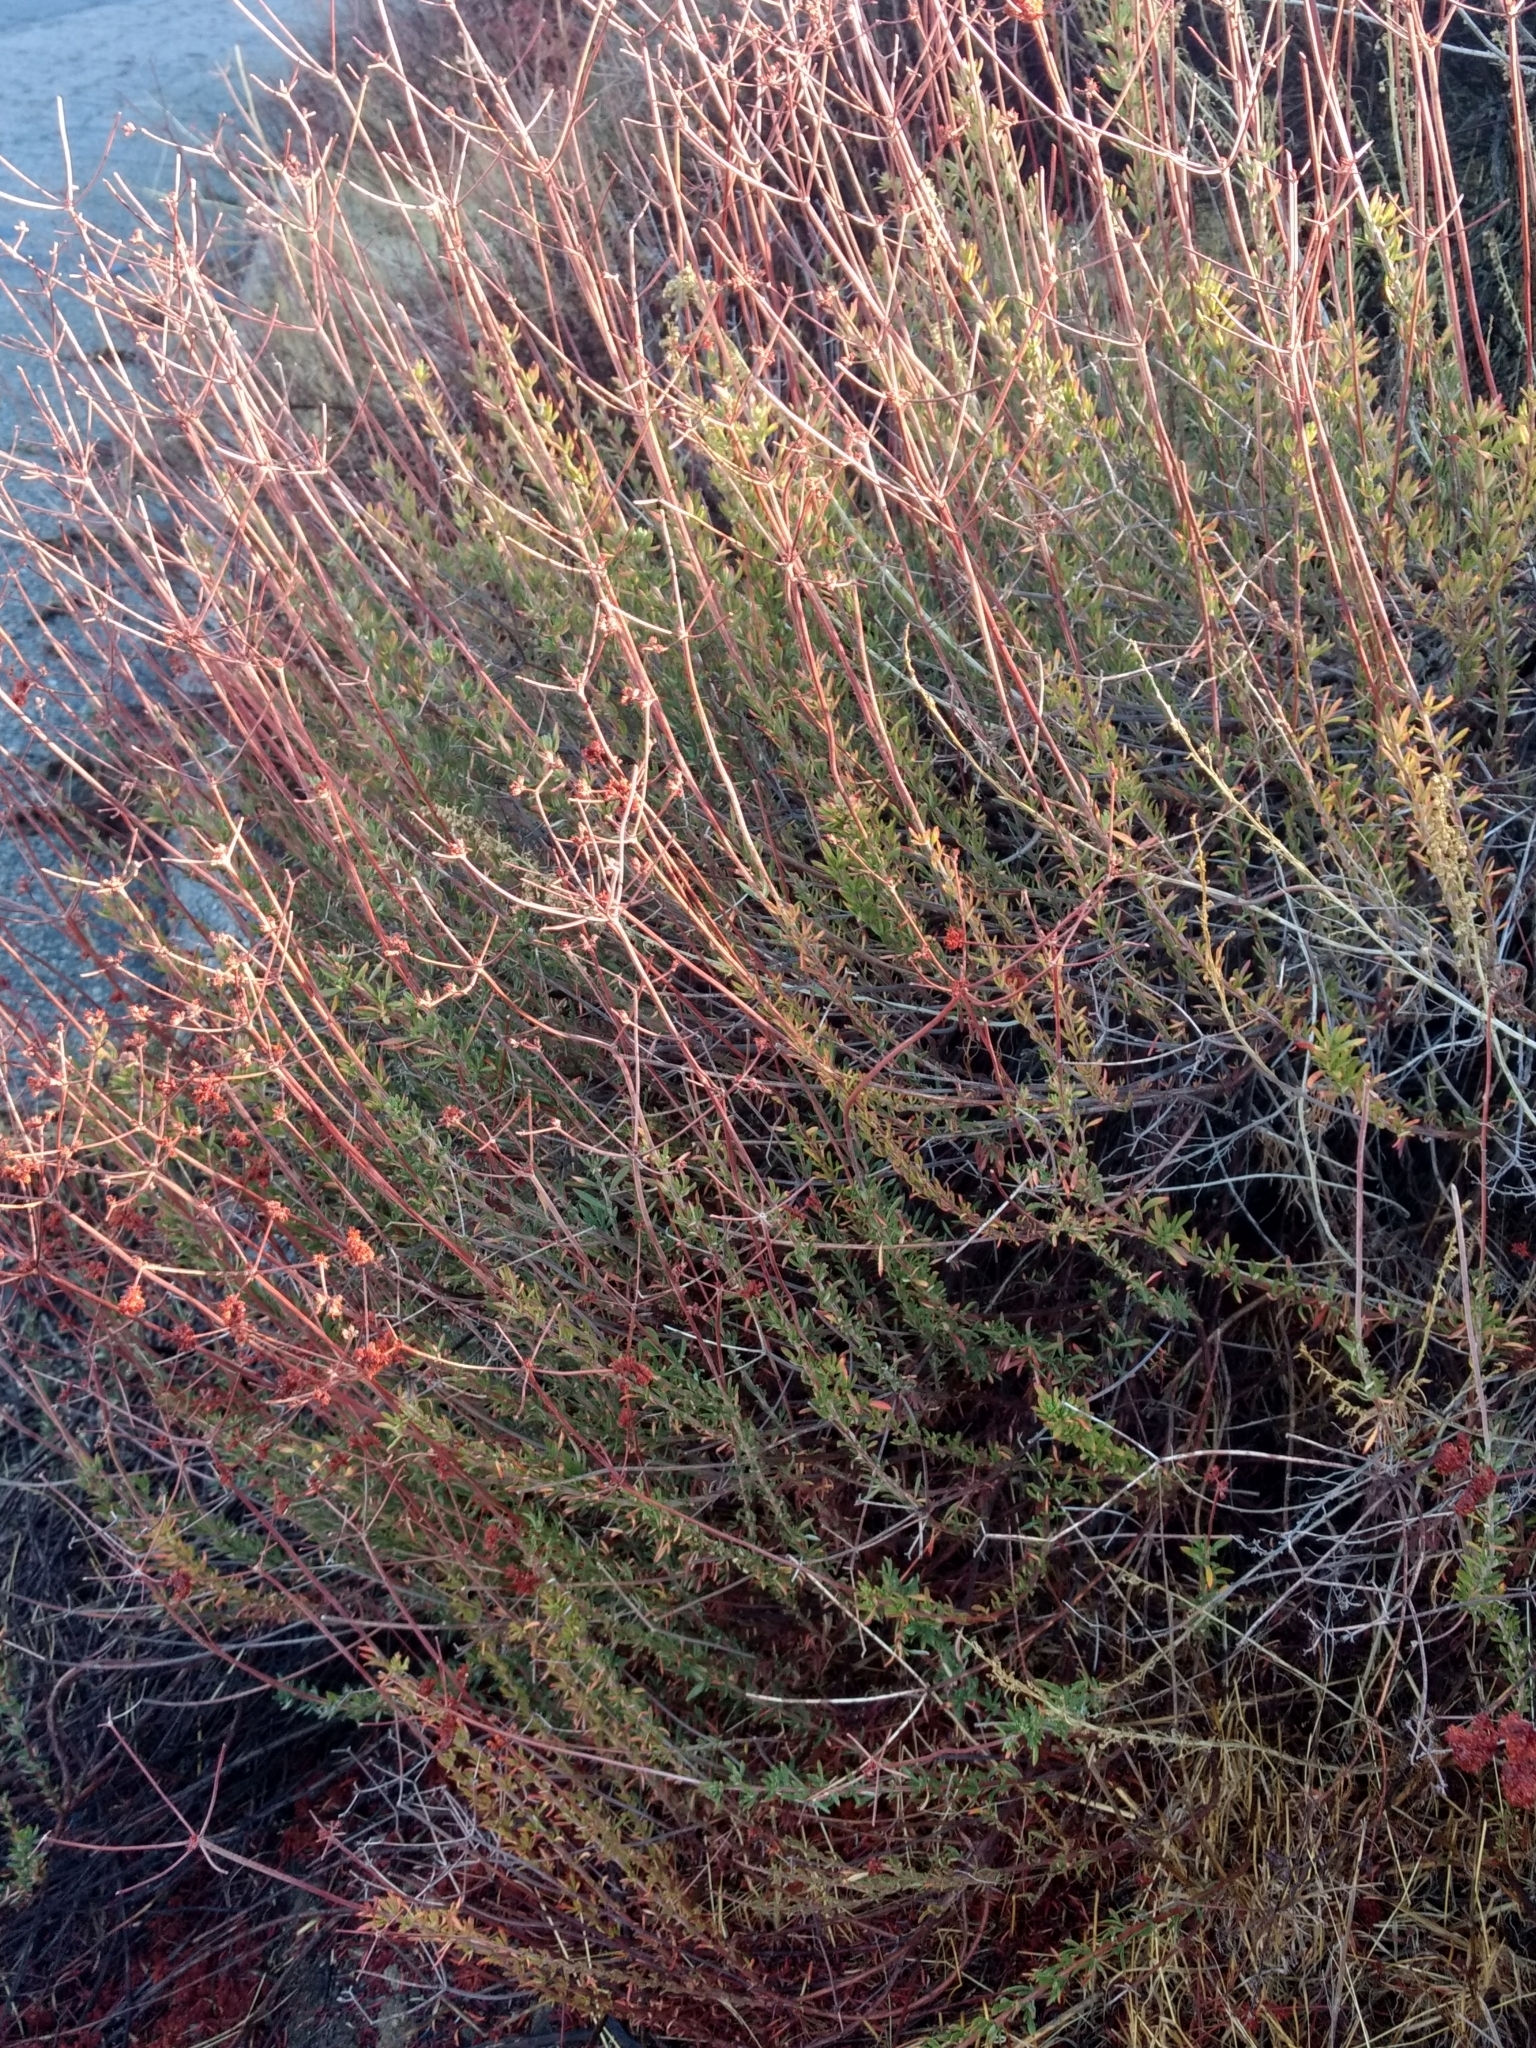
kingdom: Plantae
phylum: Tracheophyta
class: Magnoliopsida
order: Caryophyllales
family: Polygonaceae
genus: Eriogonum
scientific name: Eriogonum fasciculatum
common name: California wild buckwheat
